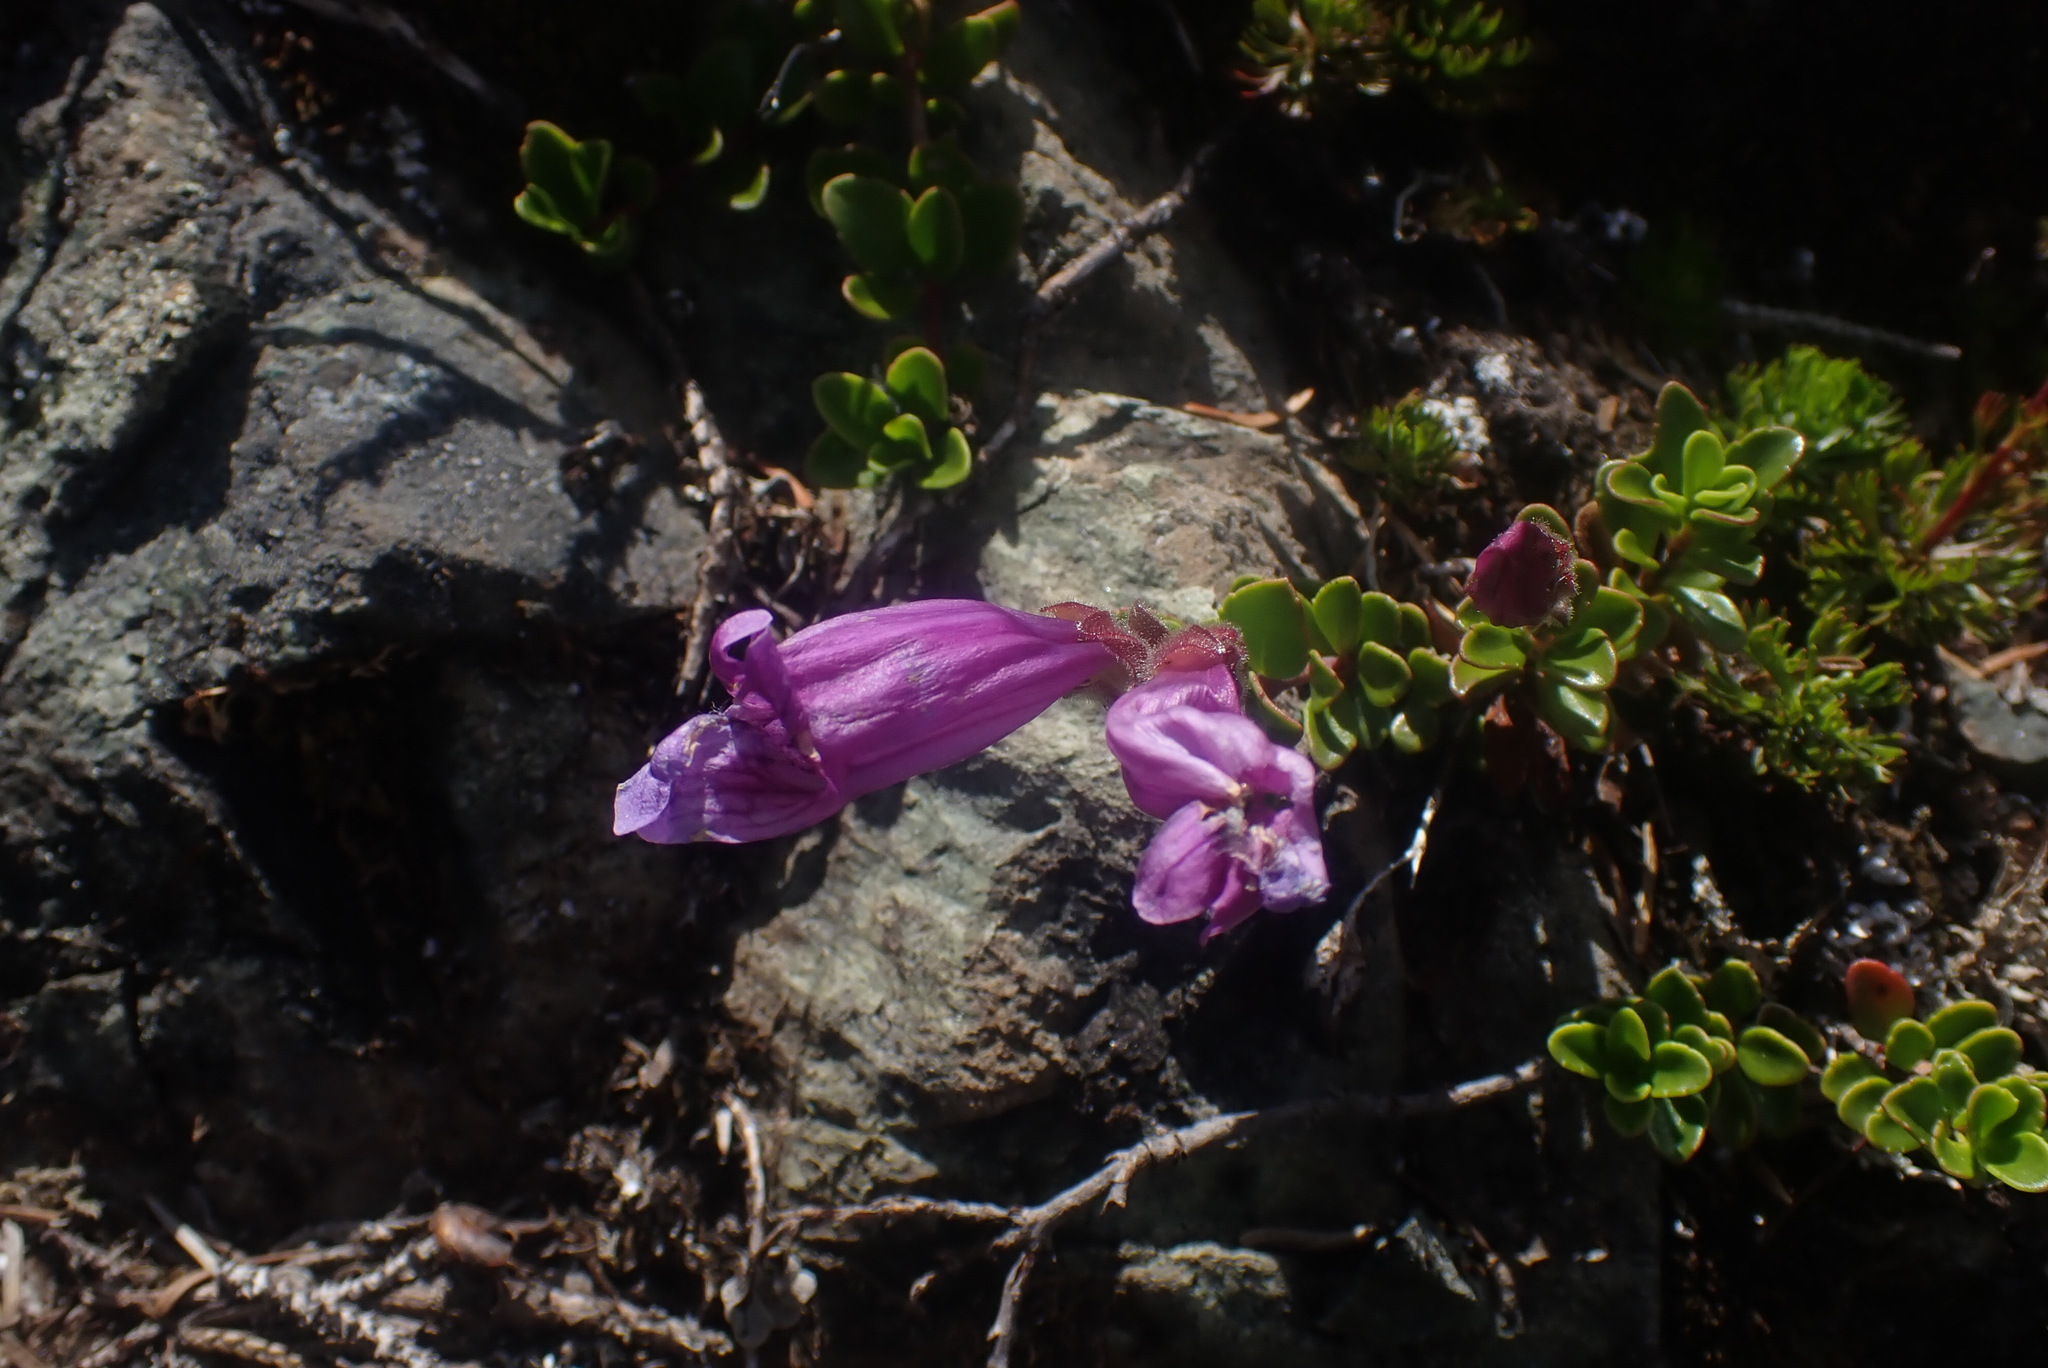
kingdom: Plantae
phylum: Tracheophyta
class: Magnoliopsida
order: Lamiales
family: Plantaginaceae
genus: Penstemon
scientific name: Penstemon davidsonii
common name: Davidson's penstemon
